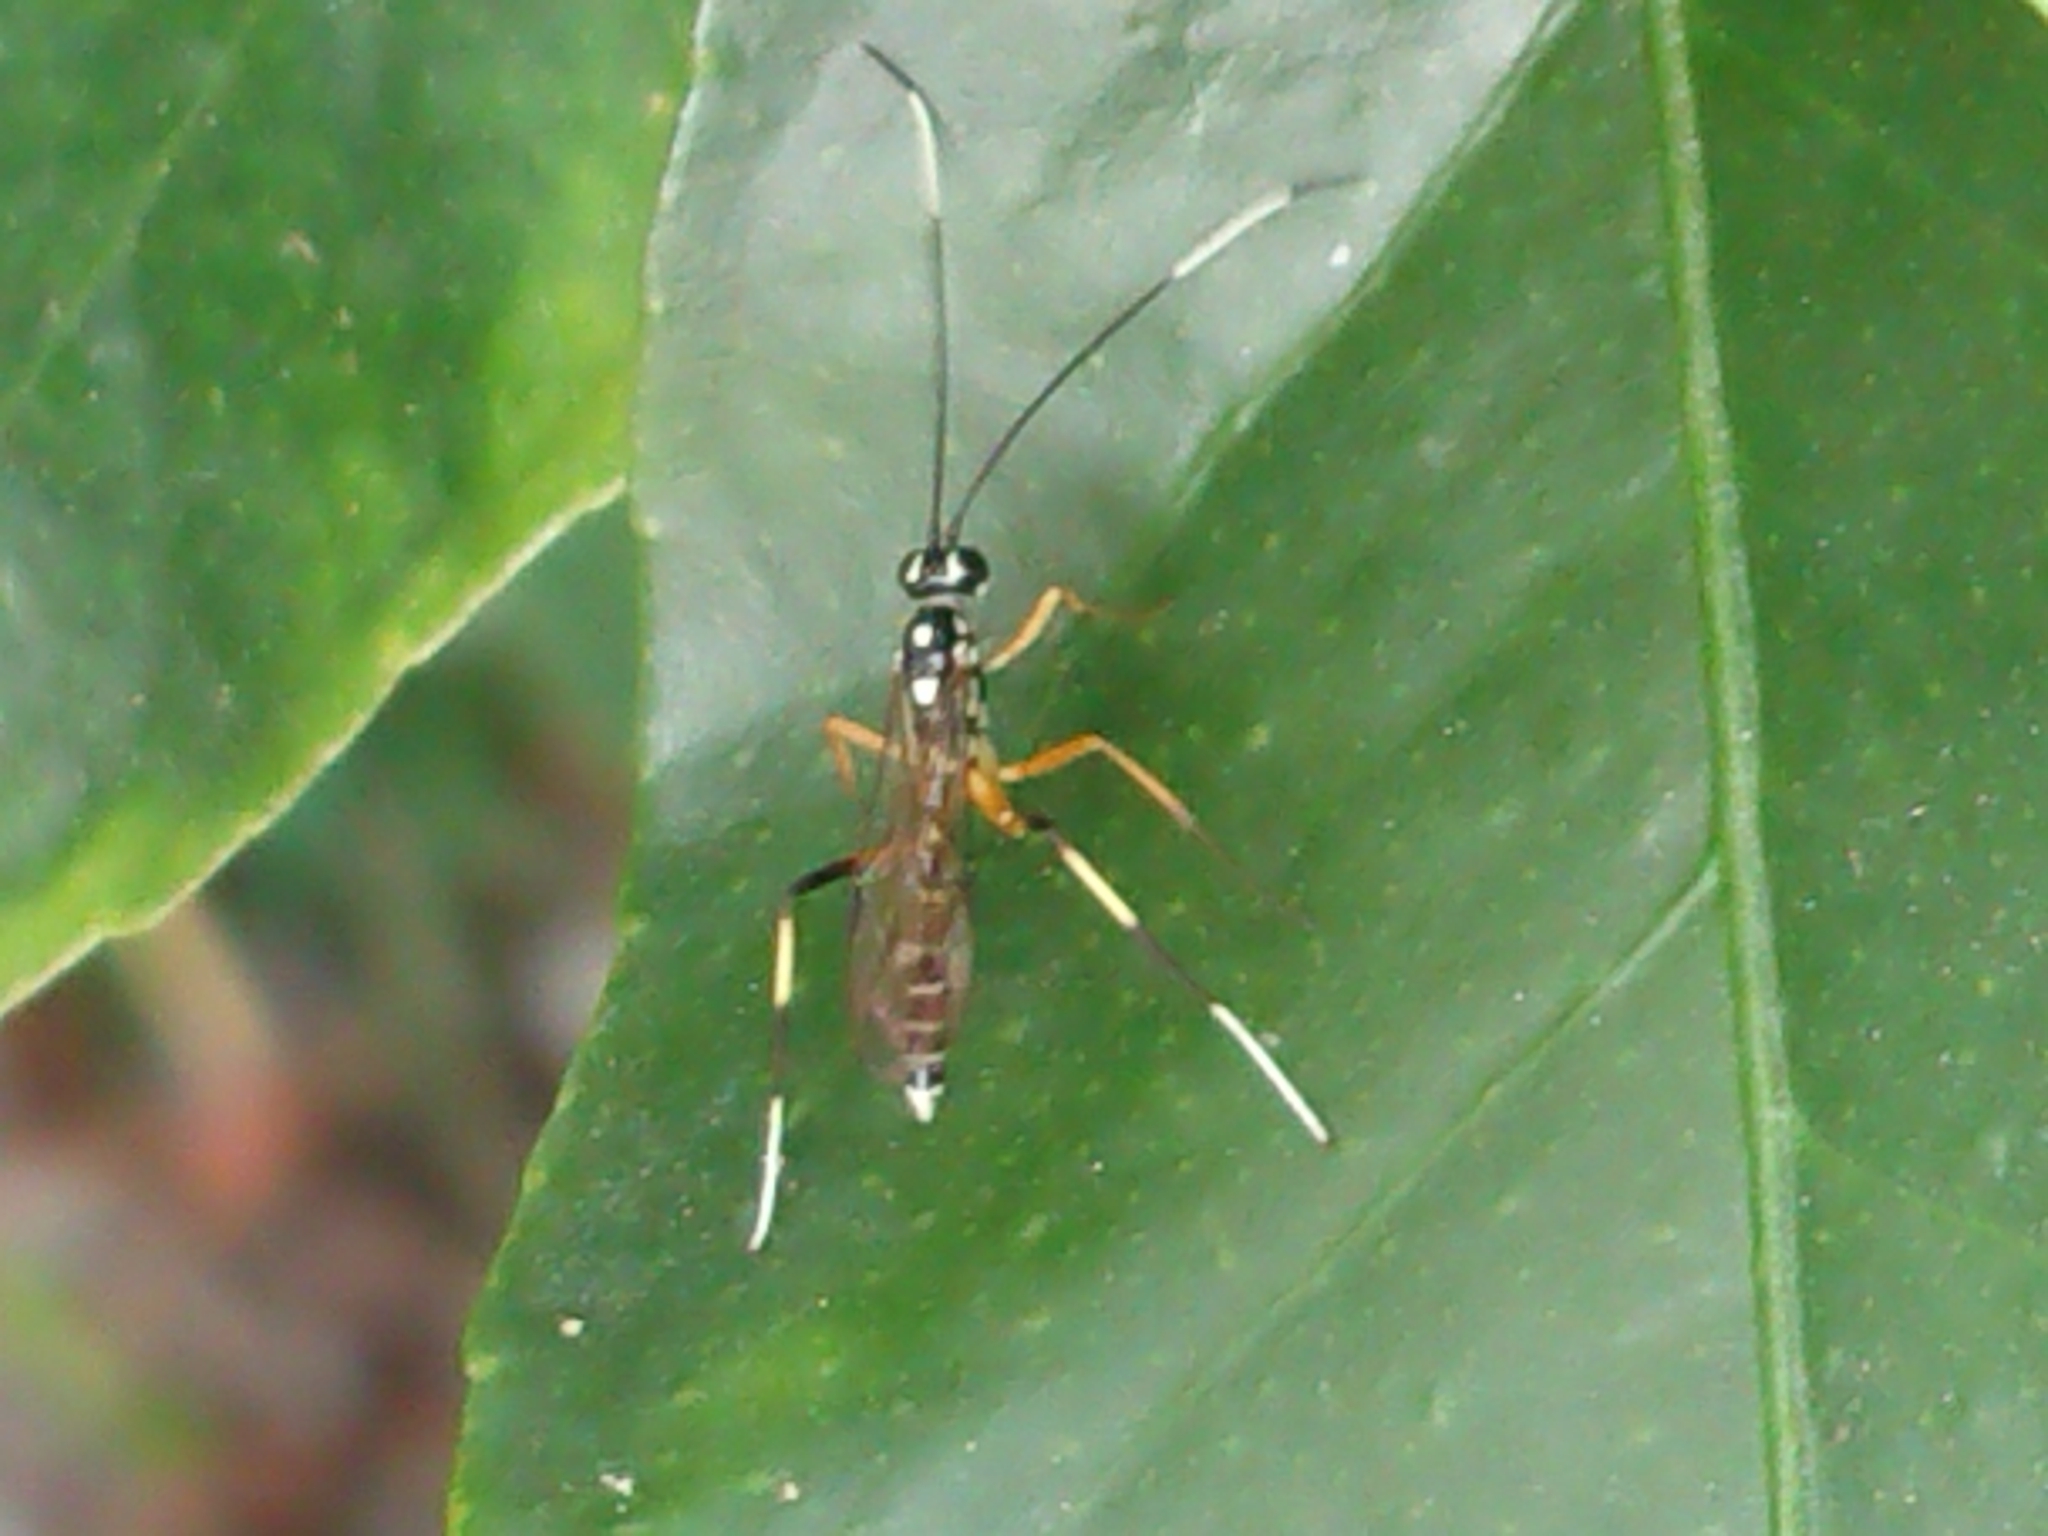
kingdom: Animalia
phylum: Arthropoda
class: Insecta
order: Hymenoptera
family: Ichneumonidae
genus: Xanthocryptus
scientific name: Xanthocryptus novozealandicus
